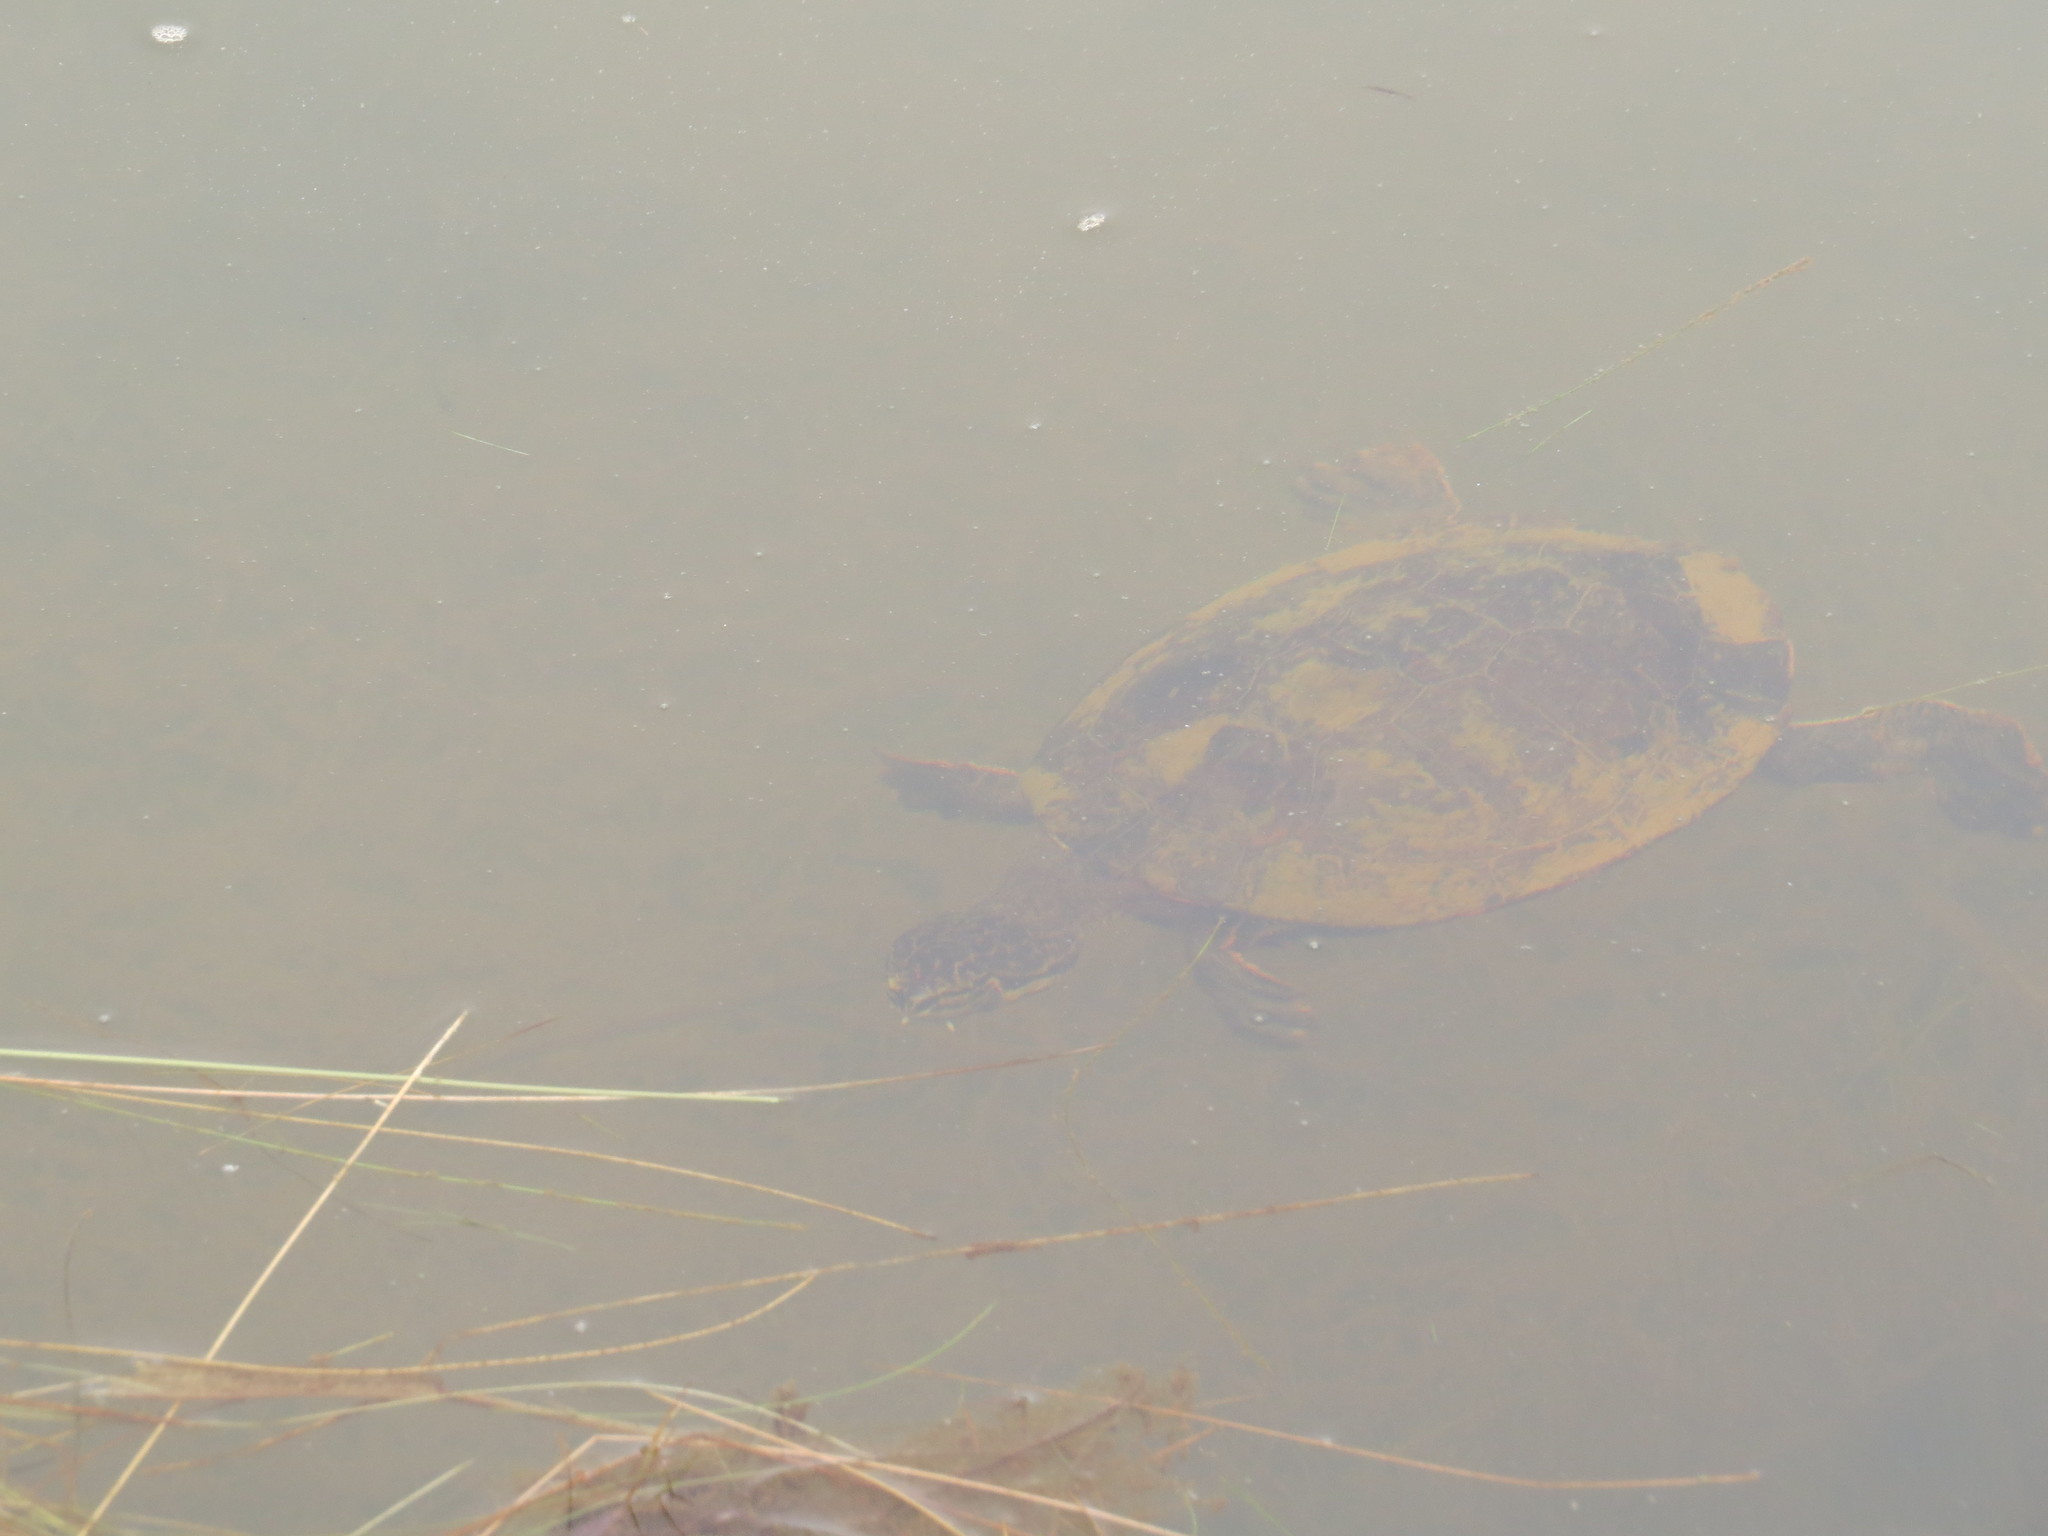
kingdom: Animalia
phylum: Chordata
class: Testudines
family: Chelidae
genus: Phrynops
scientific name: Phrynops geoffroanus
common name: Side-necked turtle of geoffroy
